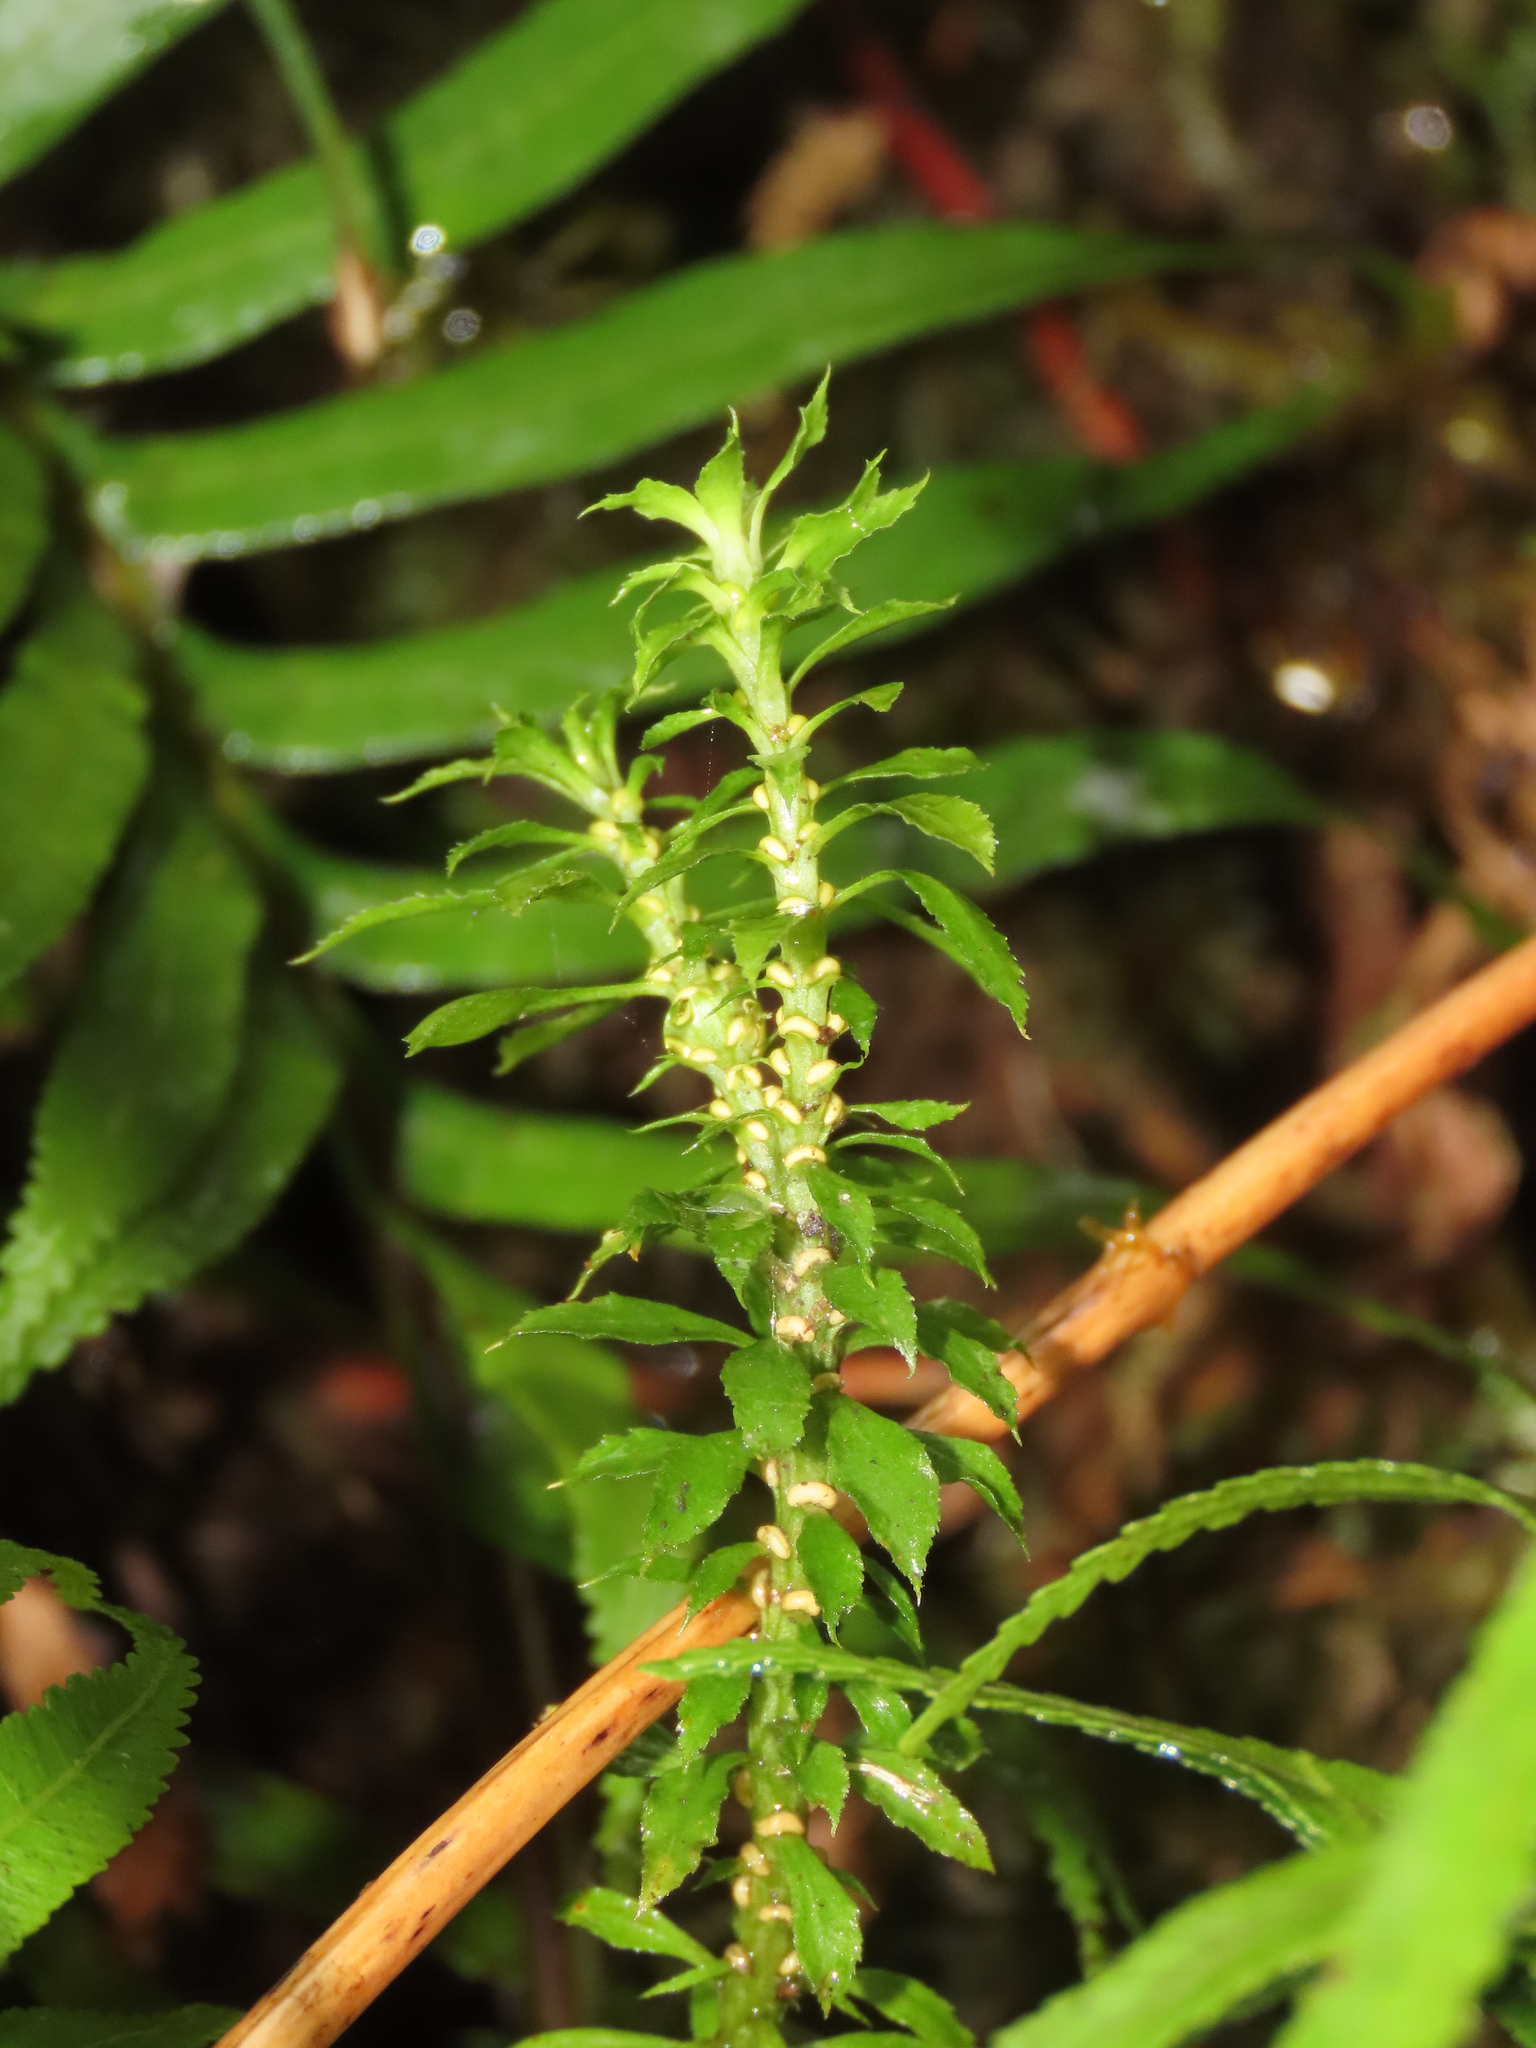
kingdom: Plantae
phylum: Tracheophyta
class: Lycopodiopsida
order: Lycopodiales
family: Lycopodiaceae
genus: Huperzia
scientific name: Huperzia javanica
